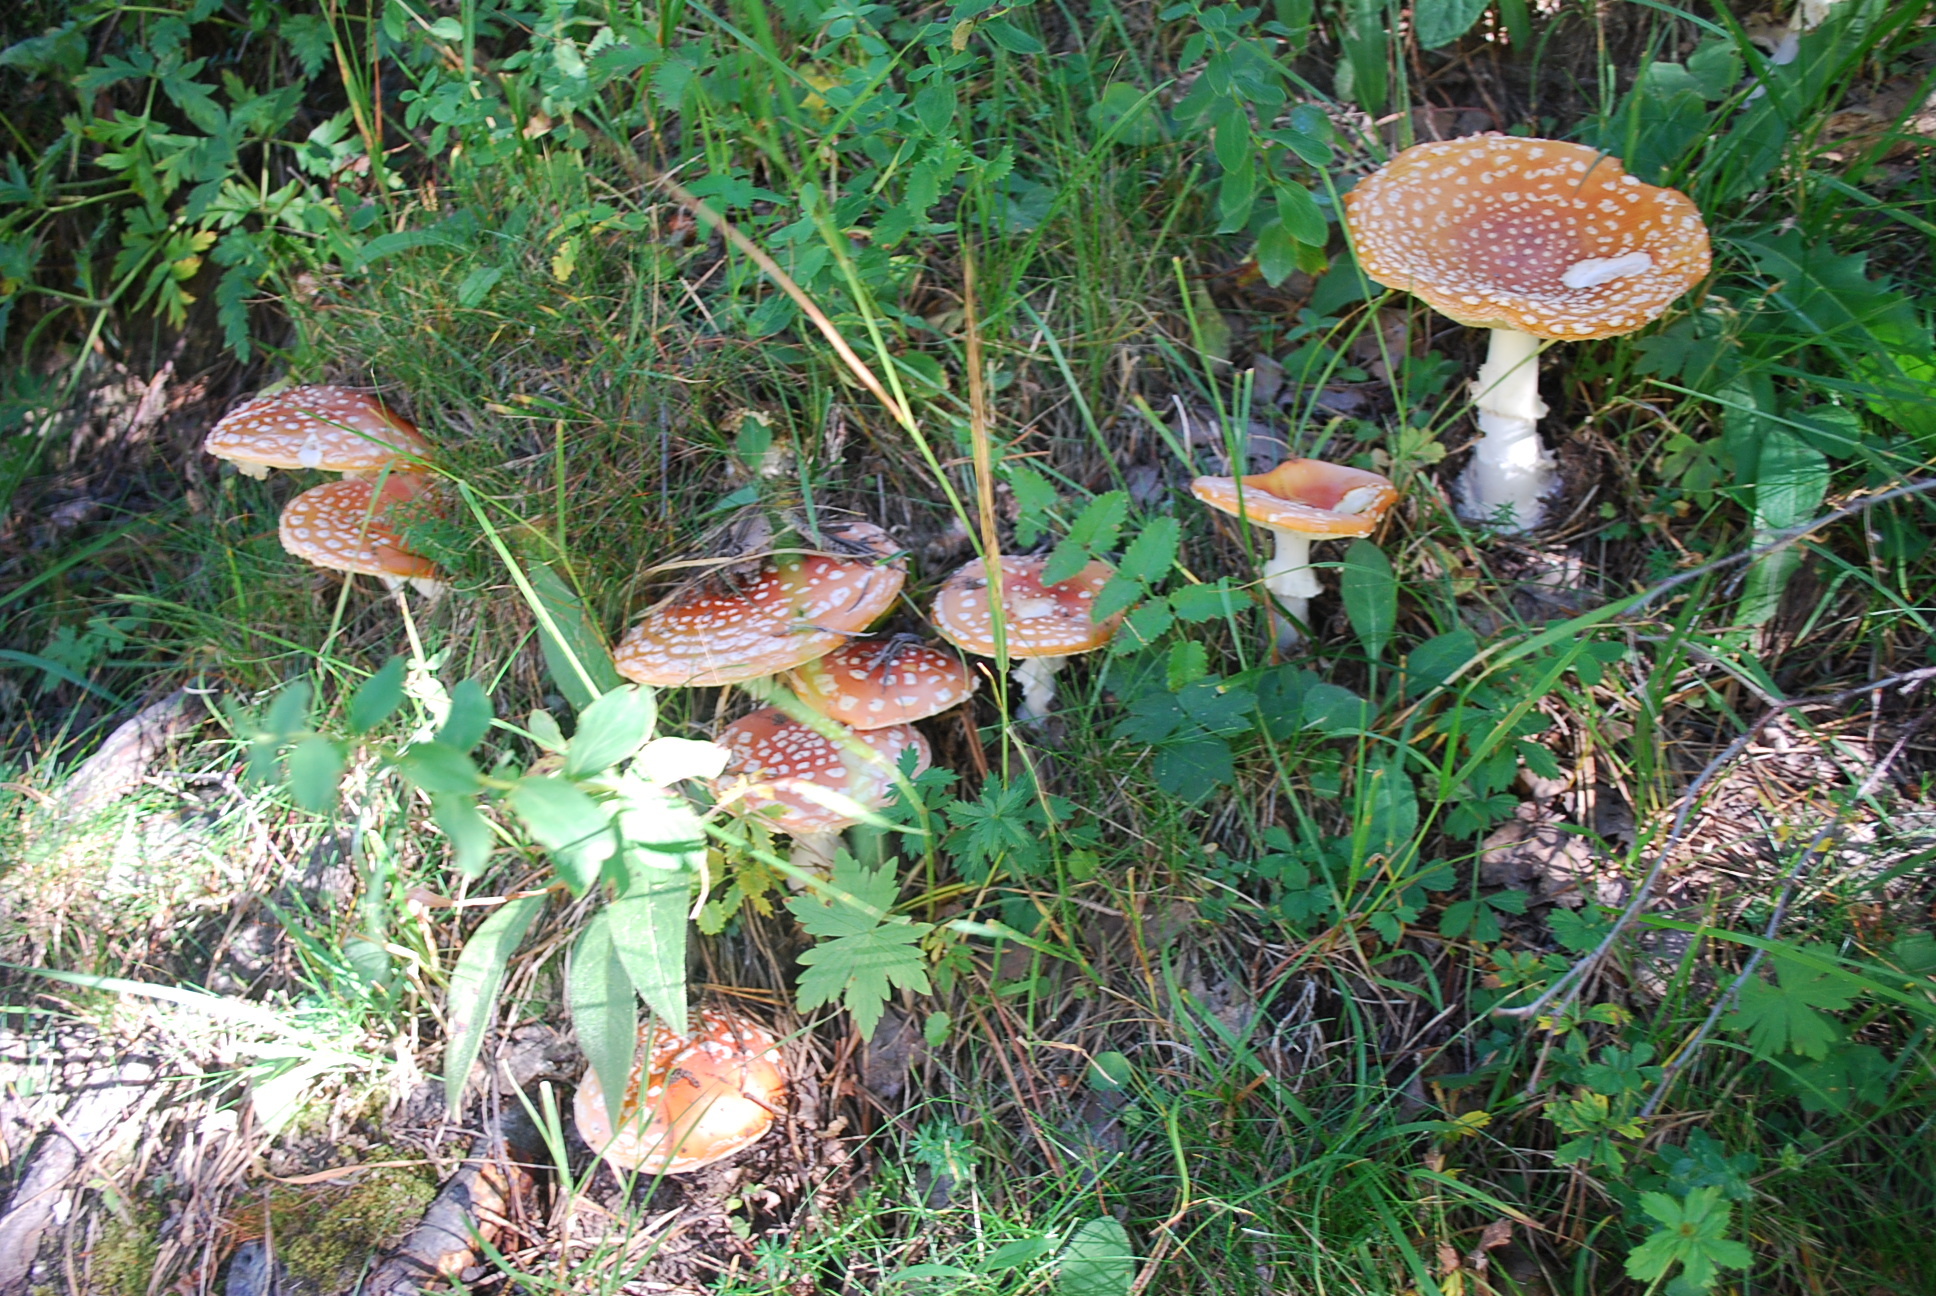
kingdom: Fungi
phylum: Basidiomycota
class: Agaricomycetes
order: Agaricales
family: Amanitaceae
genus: Amanita
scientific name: Amanita muscaria
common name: Fly agaric
